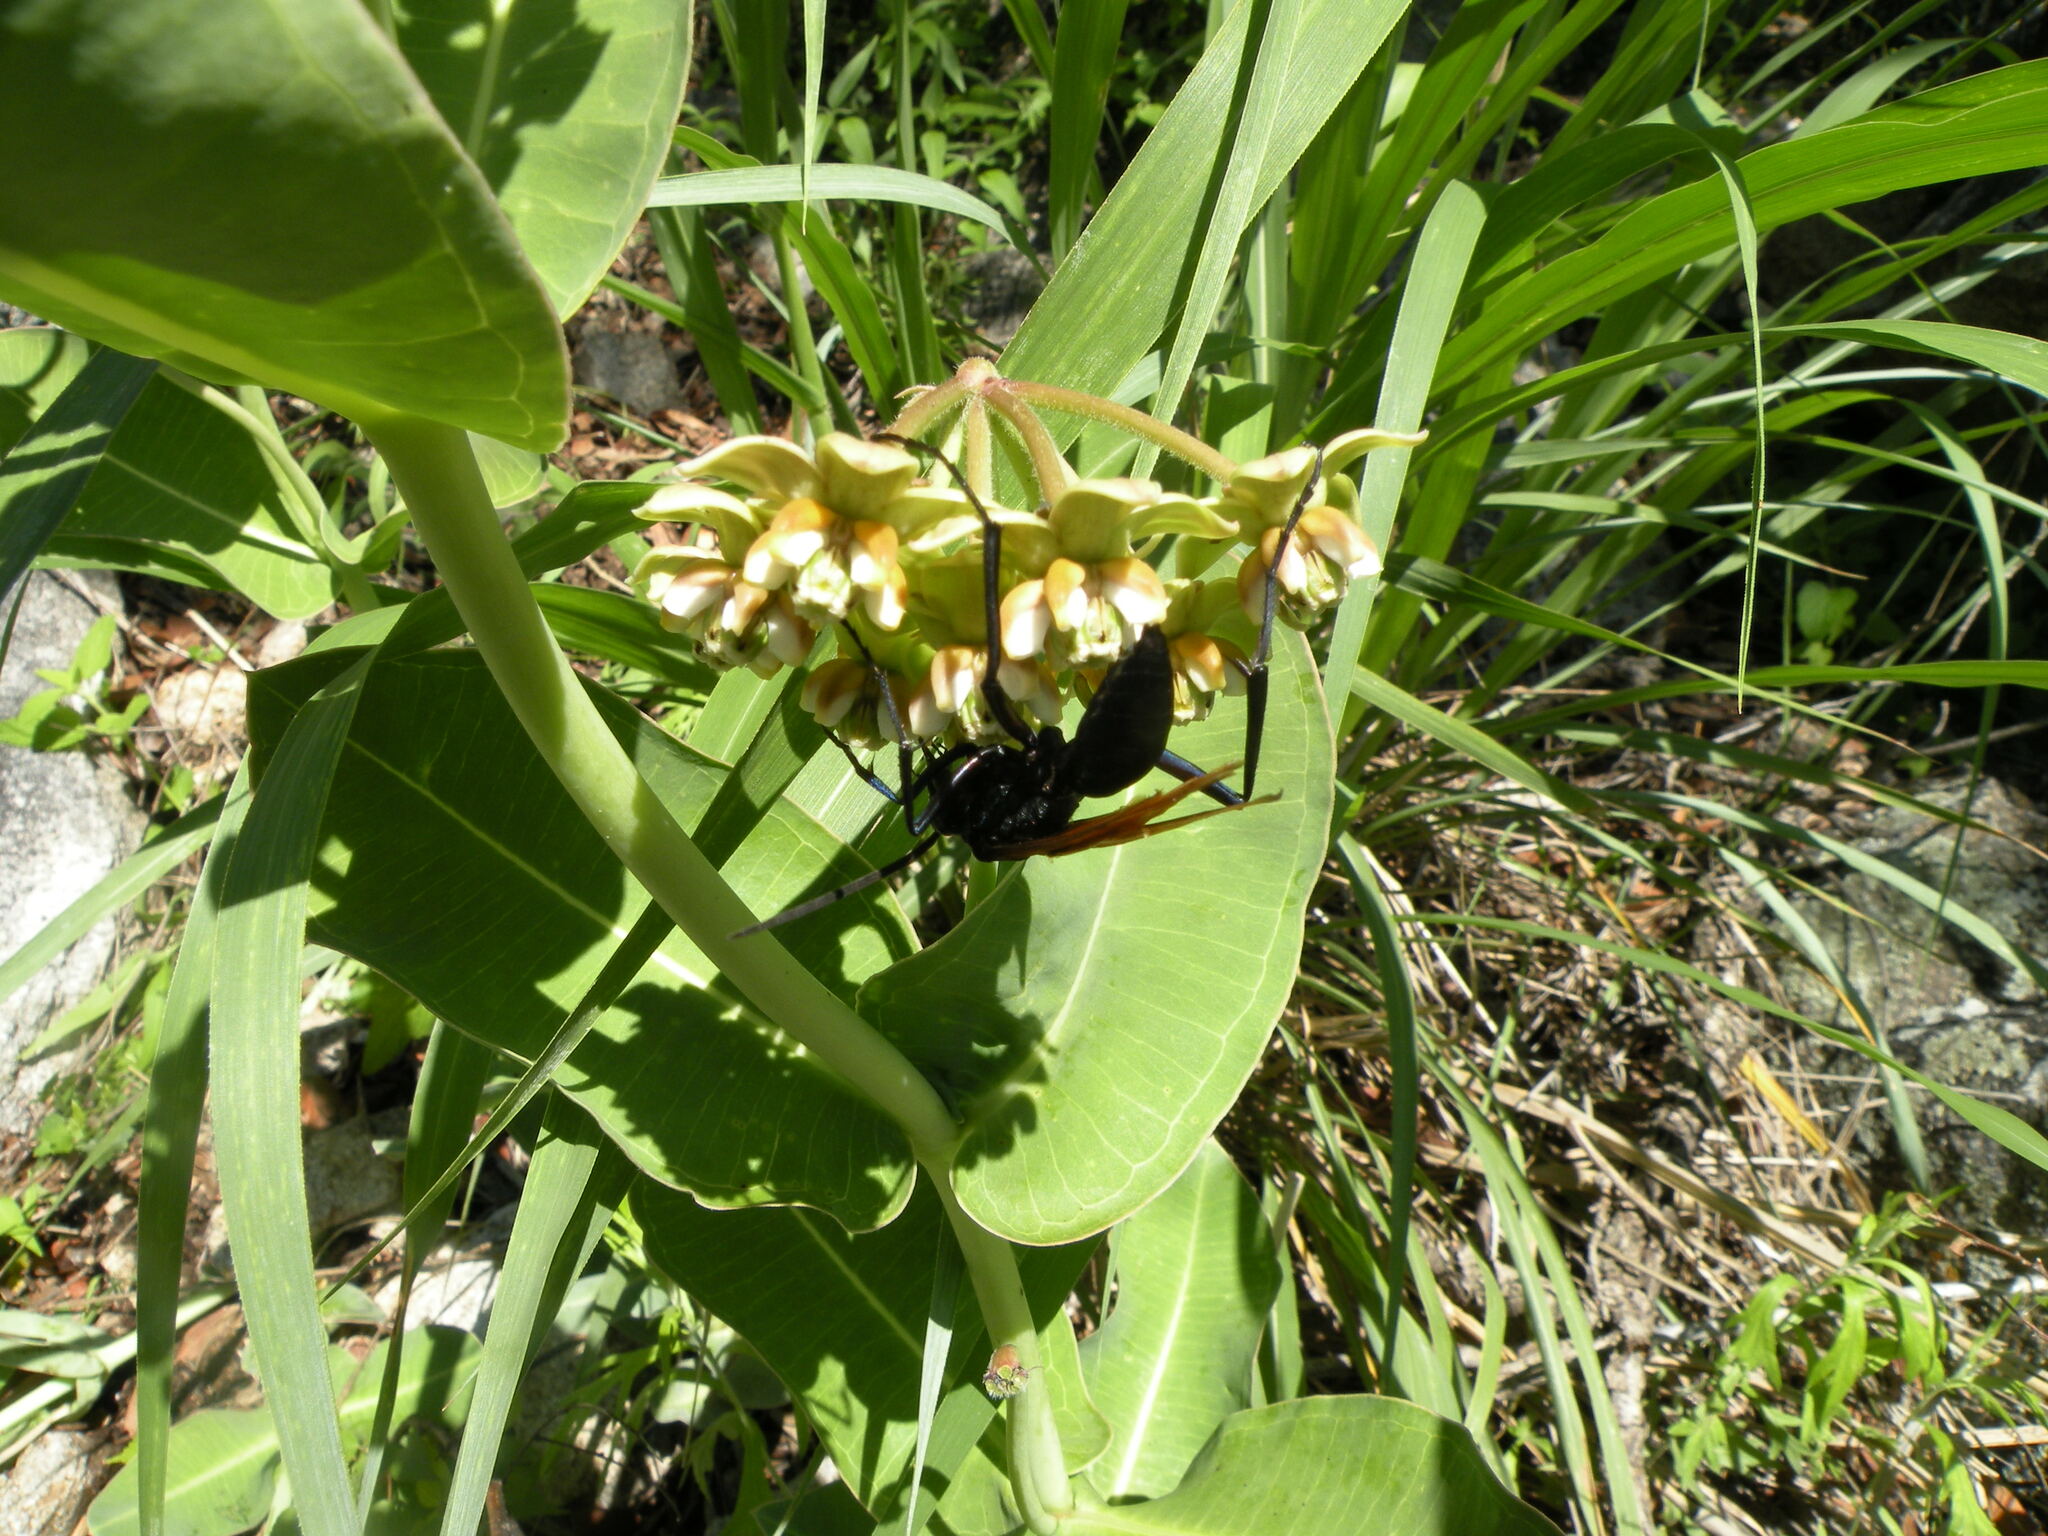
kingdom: Plantae
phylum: Tracheophyta
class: Magnoliopsida
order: Gentianales
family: Apocynaceae
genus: Asclepias
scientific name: Asclepias lemmonii
